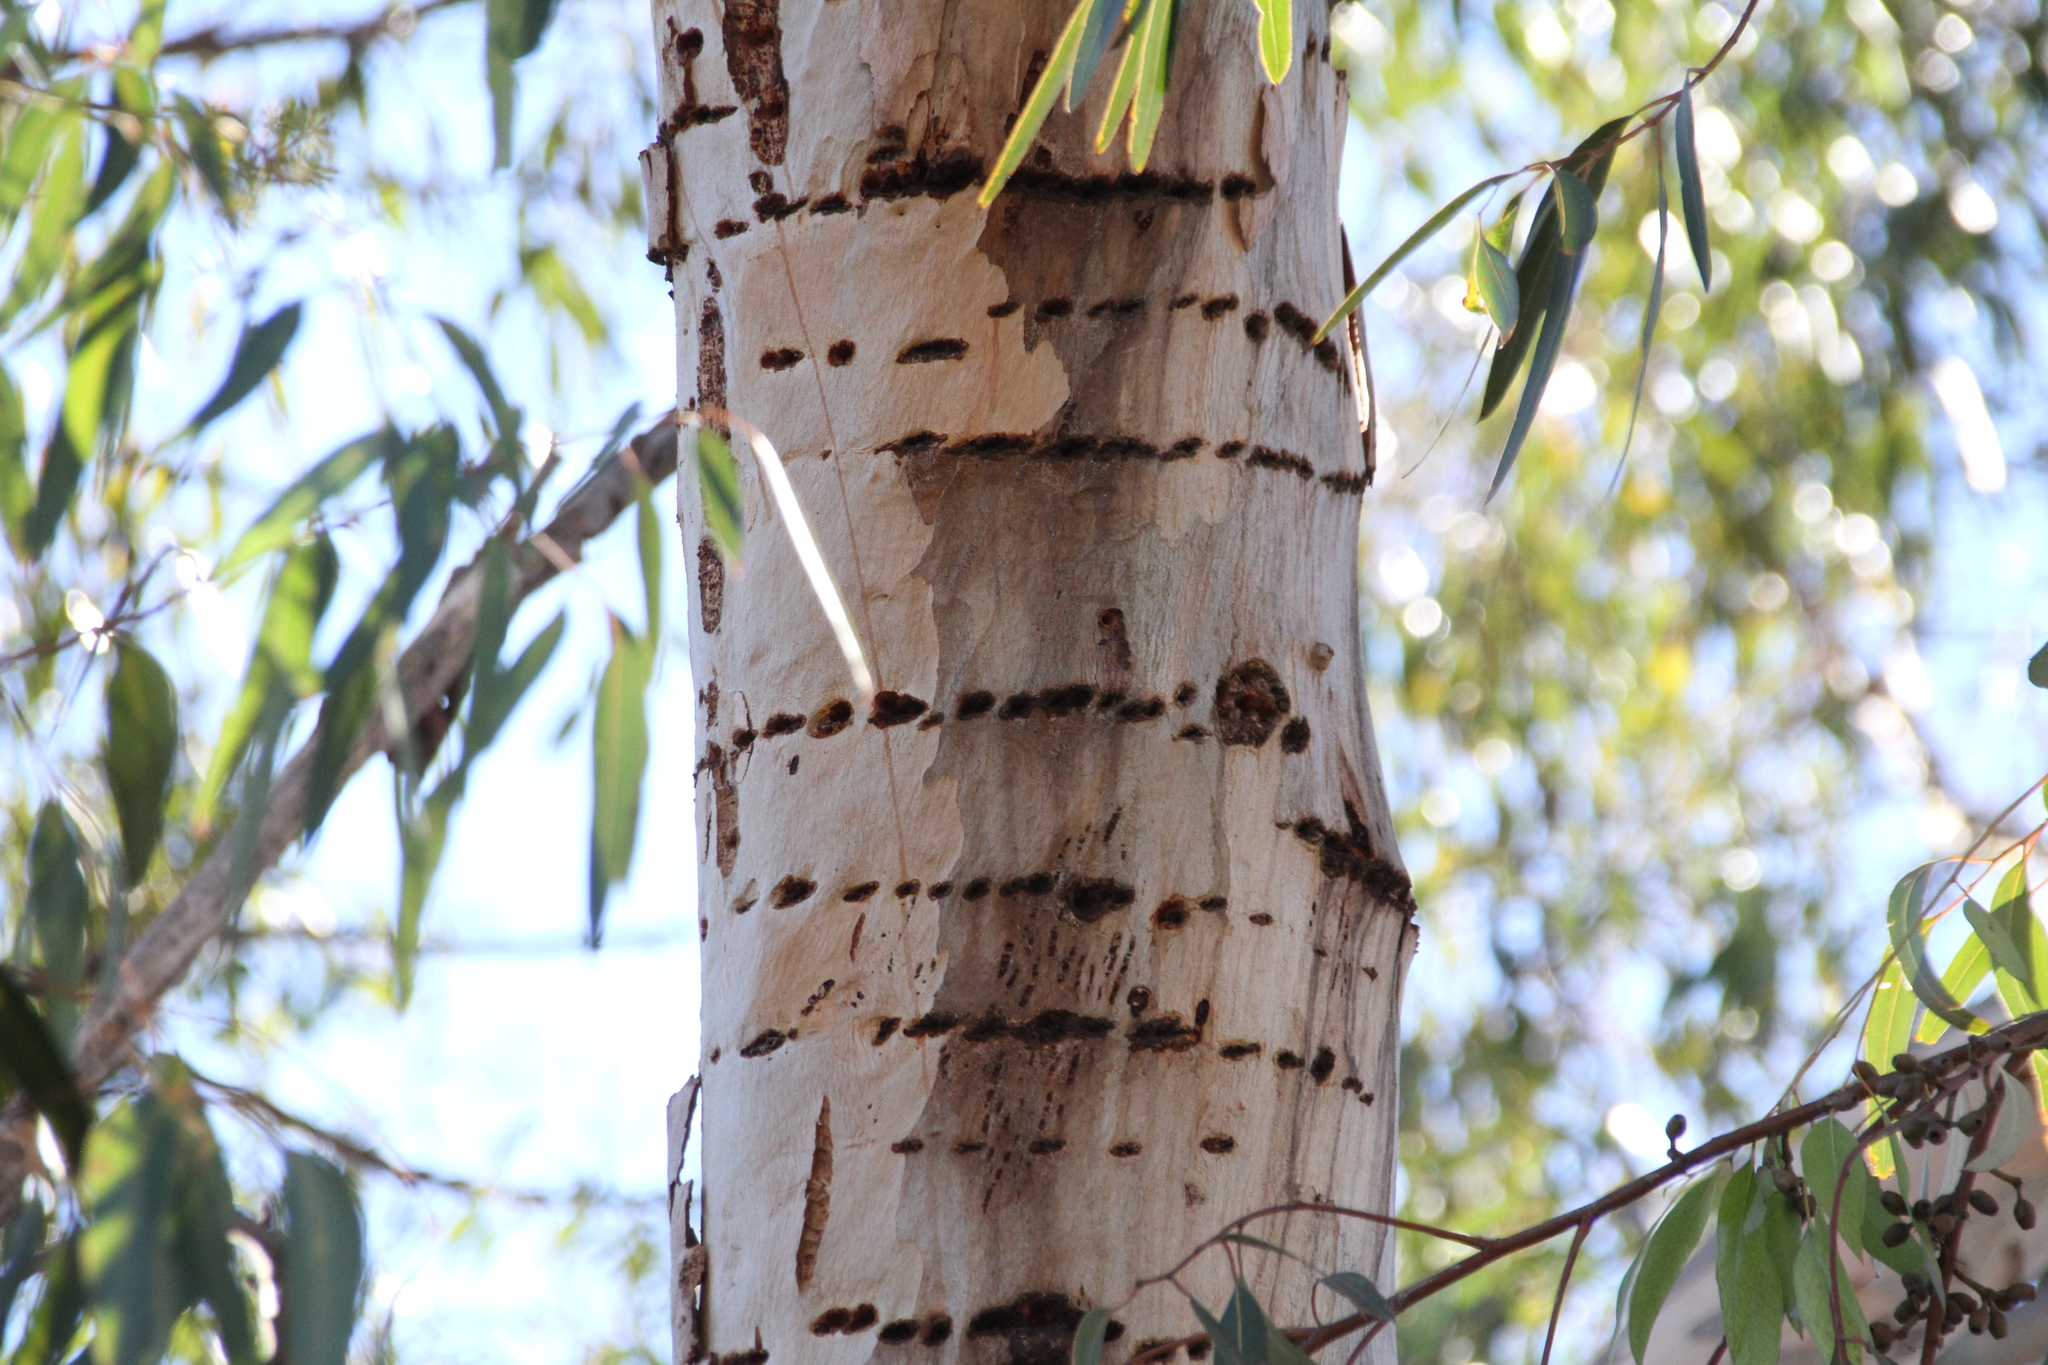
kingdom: Animalia
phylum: Chordata
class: Aves
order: Piciformes
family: Picidae
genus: Sphyrapicus
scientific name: Sphyrapicus
